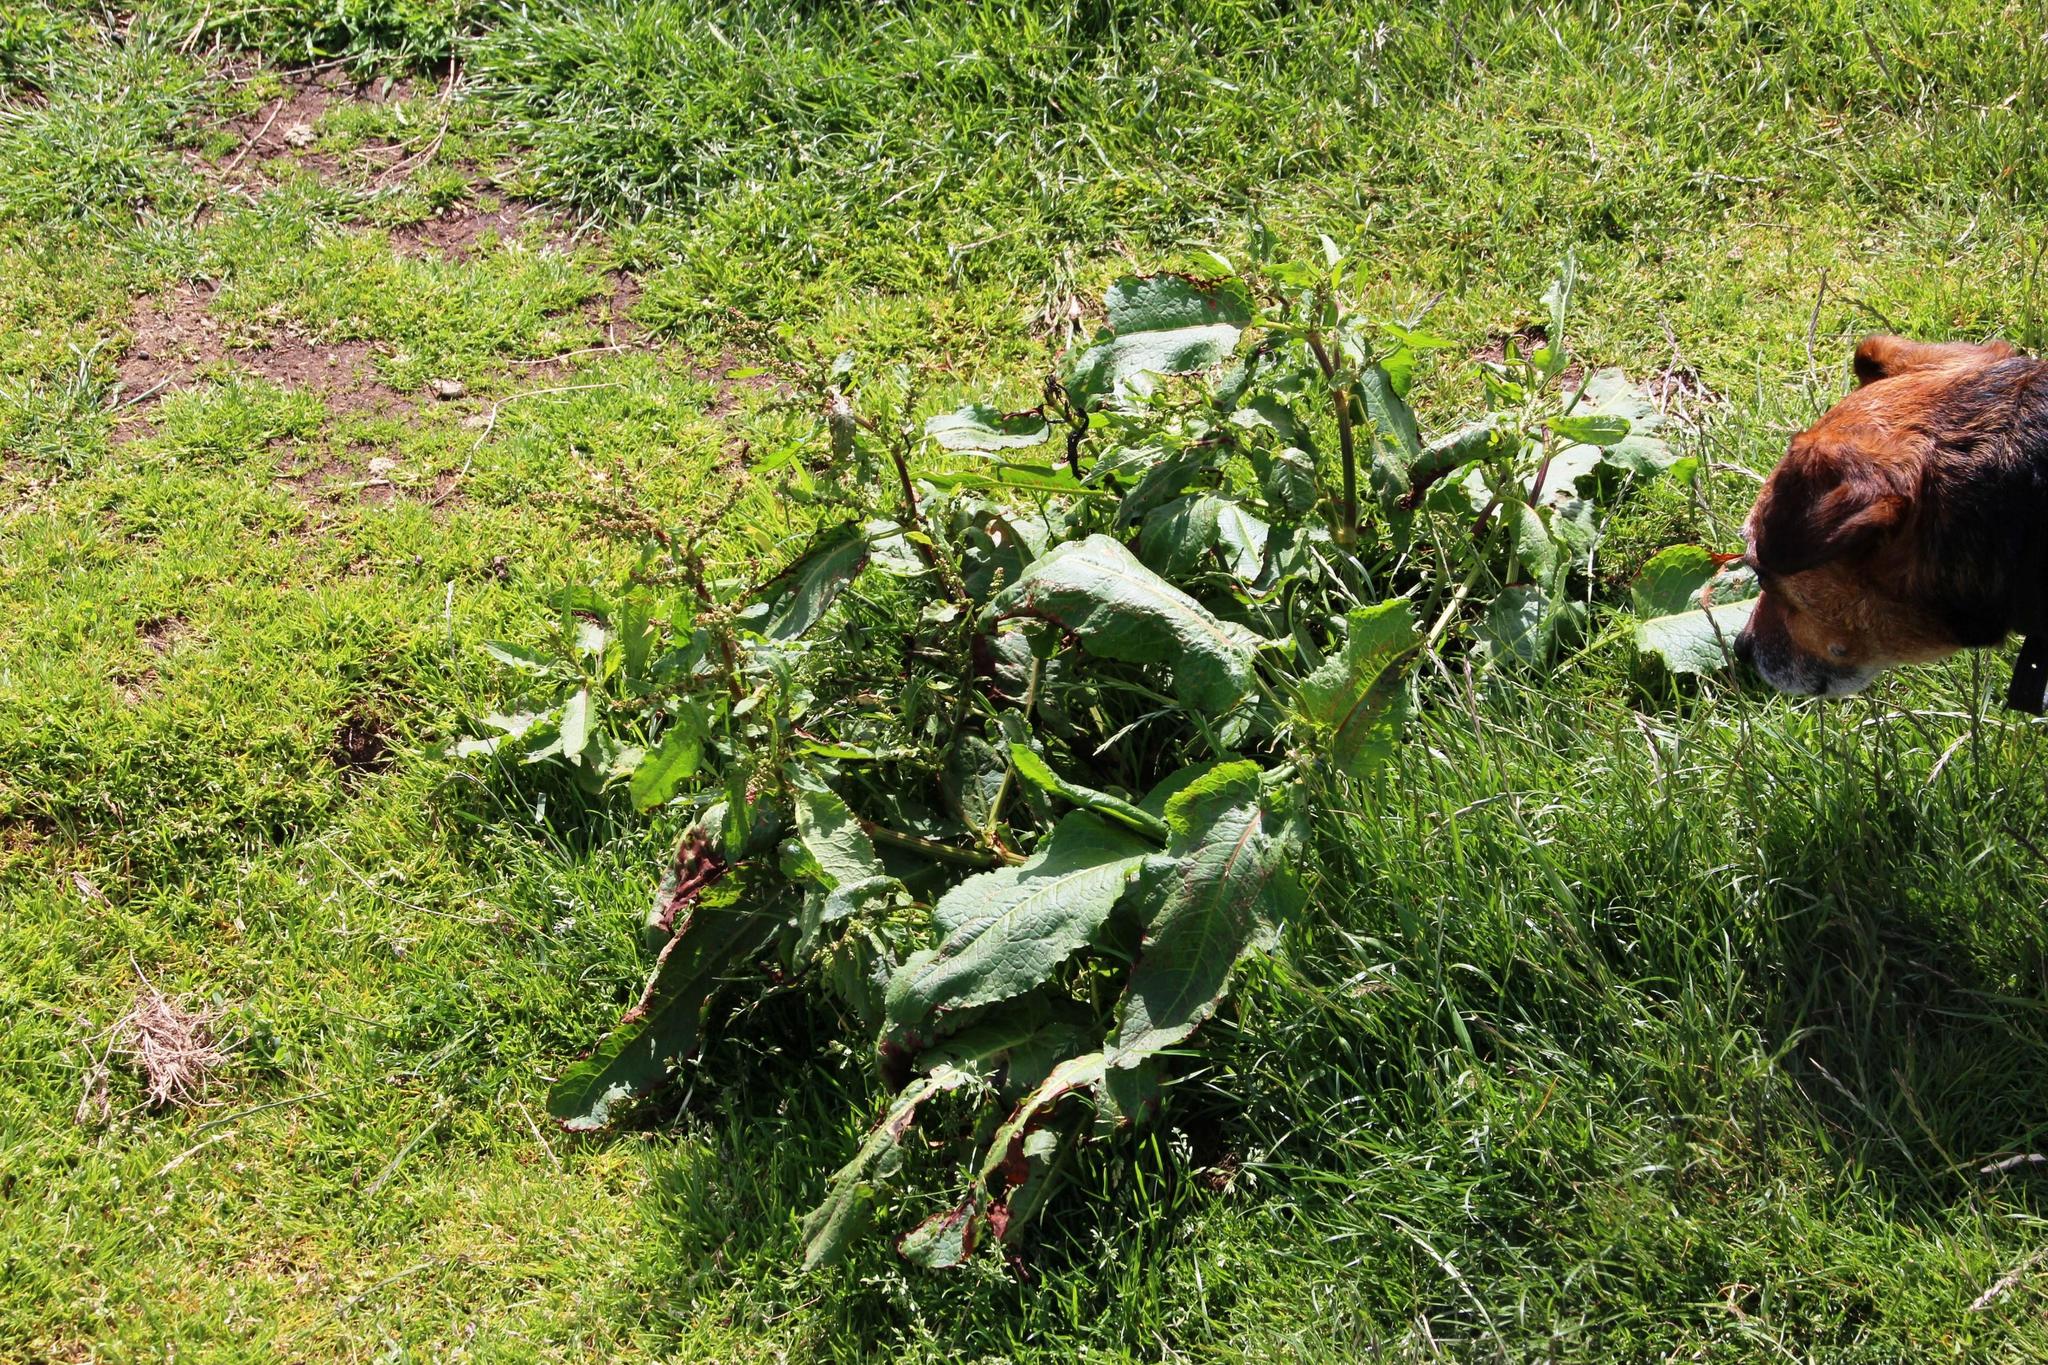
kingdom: Plantae
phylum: Tracheophyta
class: Magnoliopsida
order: Caryophyllales
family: Polygonaceae
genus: Rumex
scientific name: Rumex obtusifolius
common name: Bitter dock
